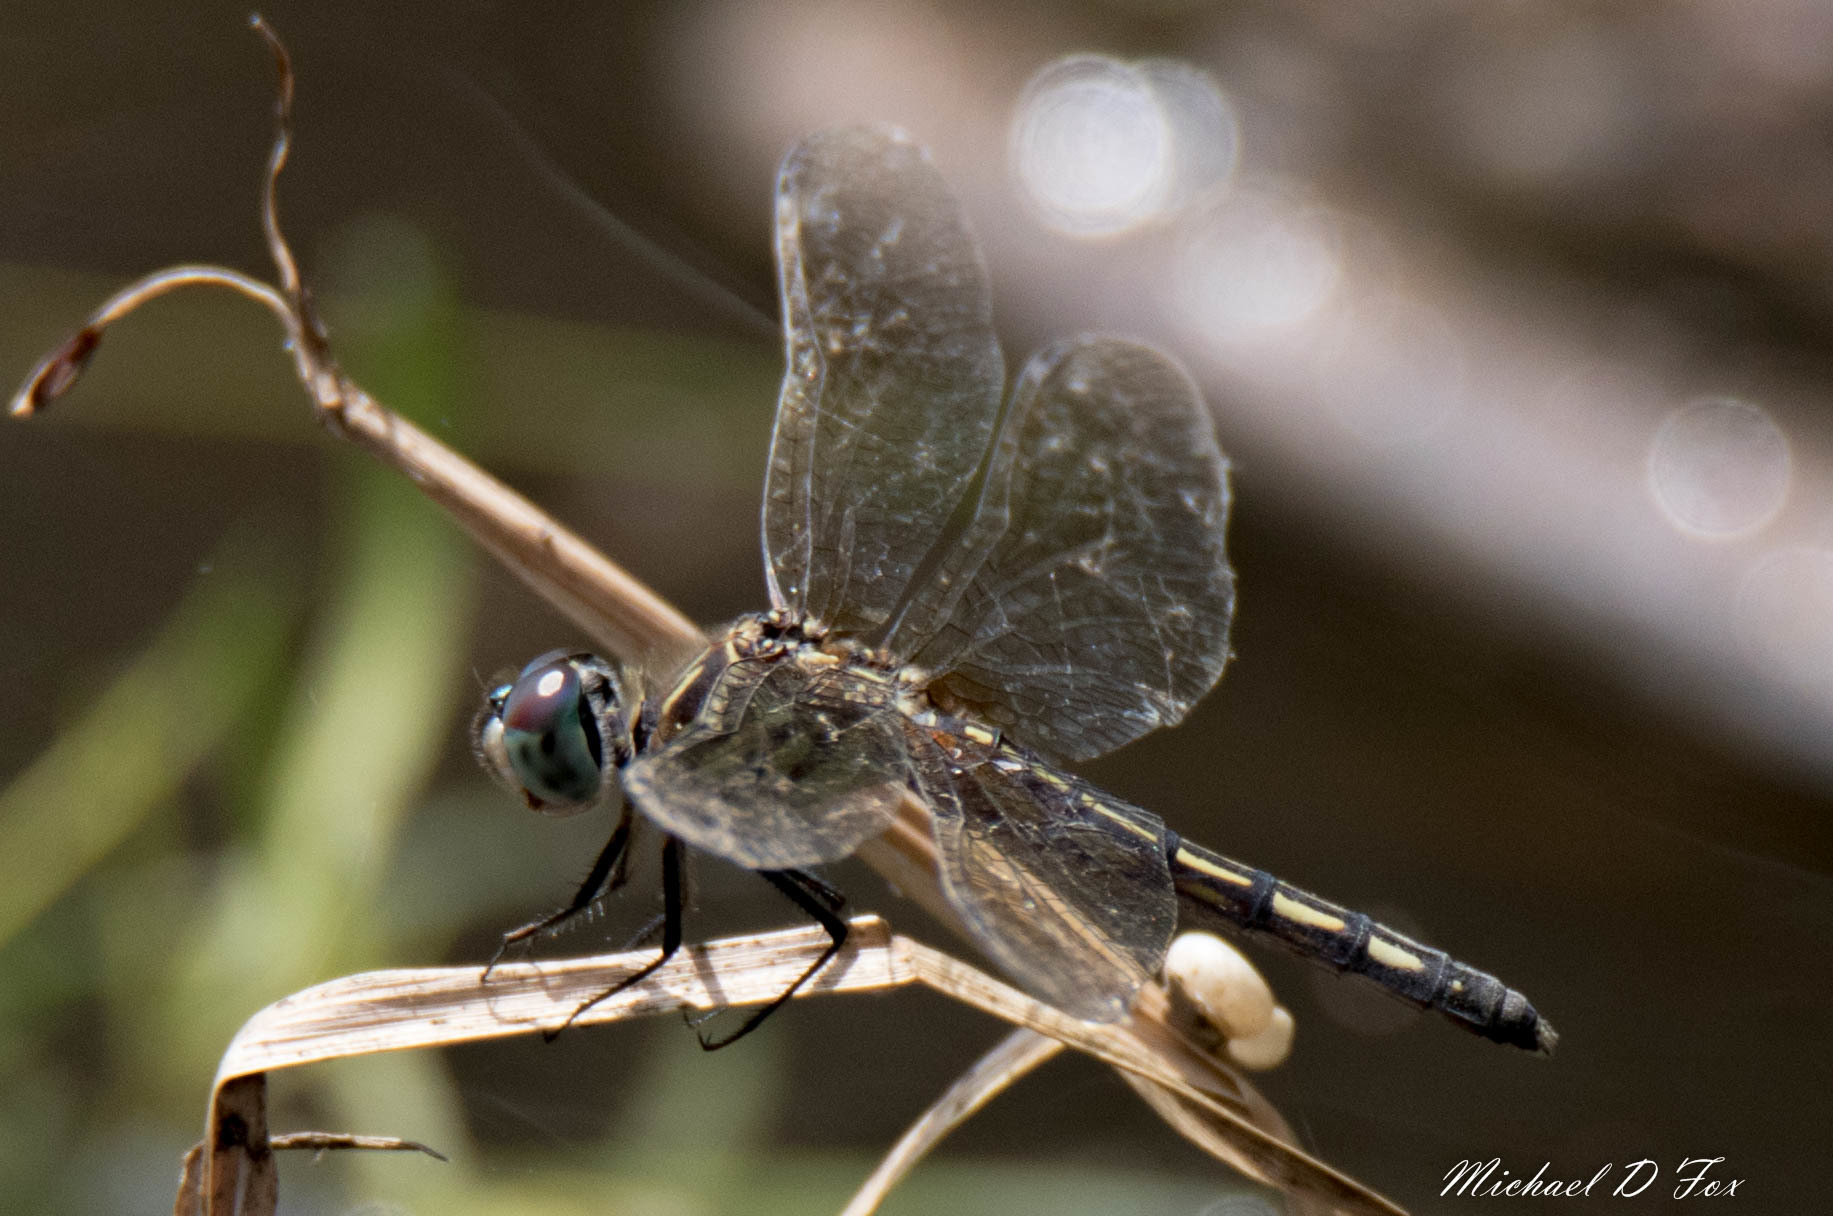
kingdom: Animalia
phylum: Arthropoda
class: Insecta
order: Odonata
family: Libellulidae
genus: Pachydiplax
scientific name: Pachydiplax longipennis
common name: Blue dasher
